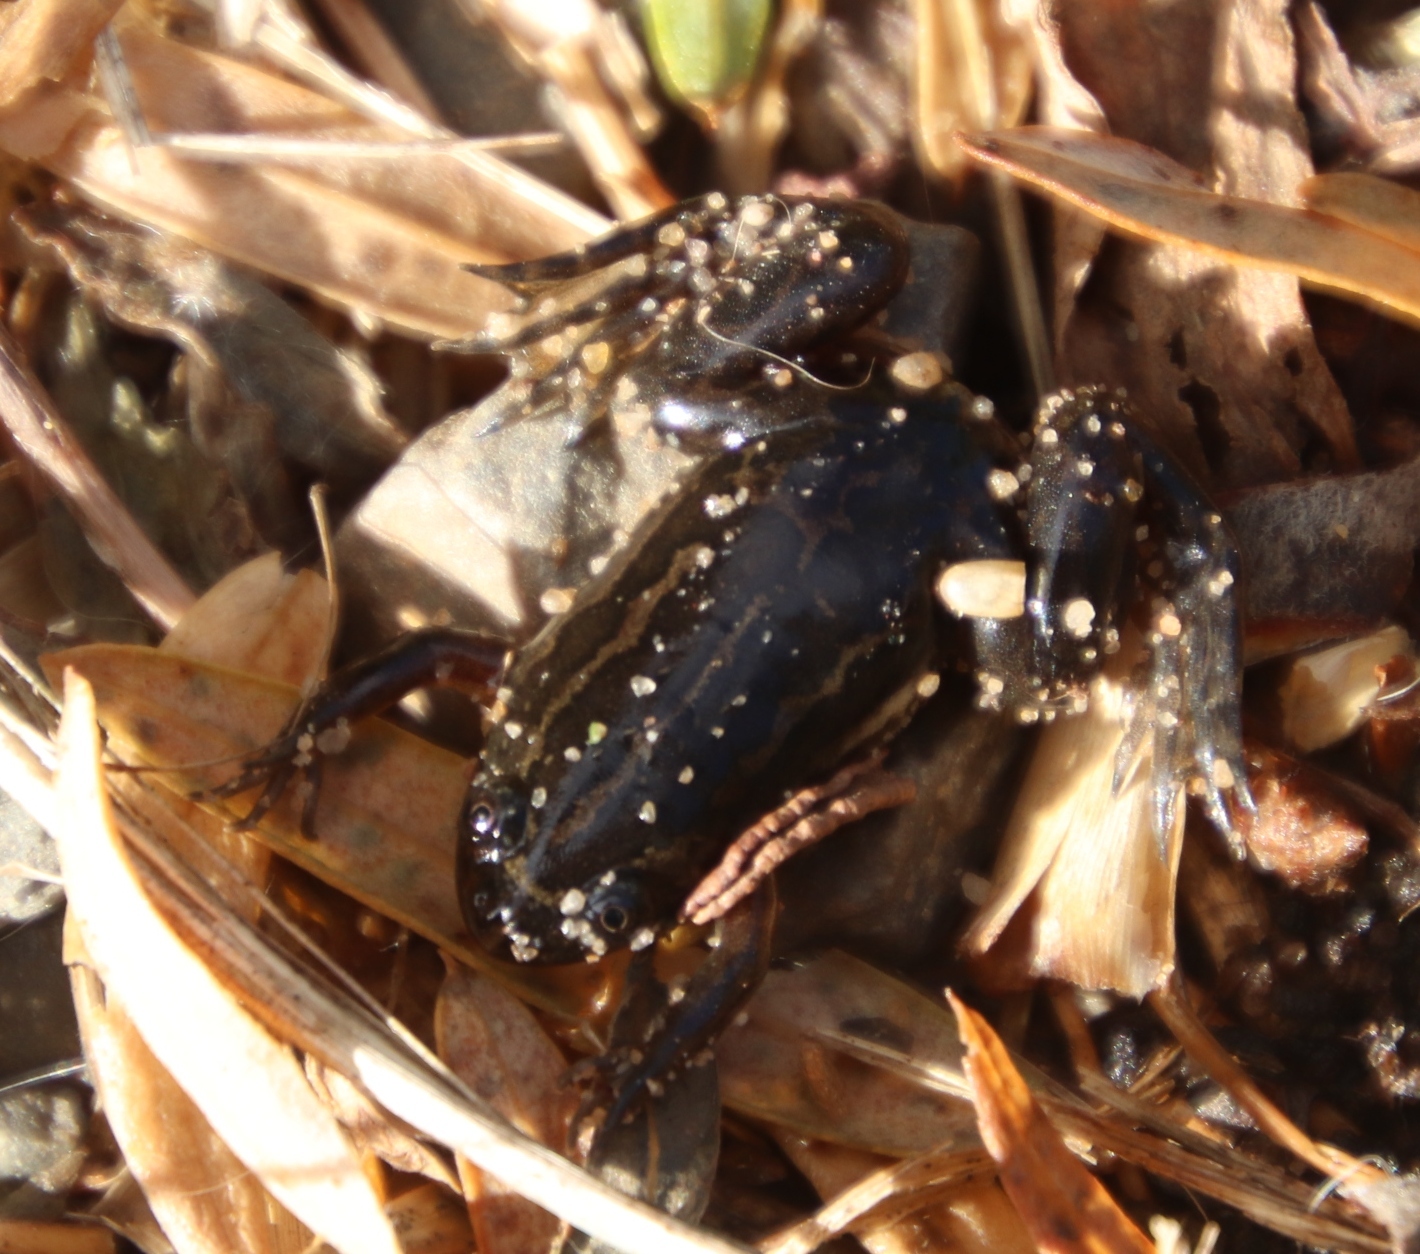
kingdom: Animalia
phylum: Chordata
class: Amphibia
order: Anura
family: Pipidae
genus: Xenopus
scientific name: Xenopus gilli
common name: Gill's platanna
